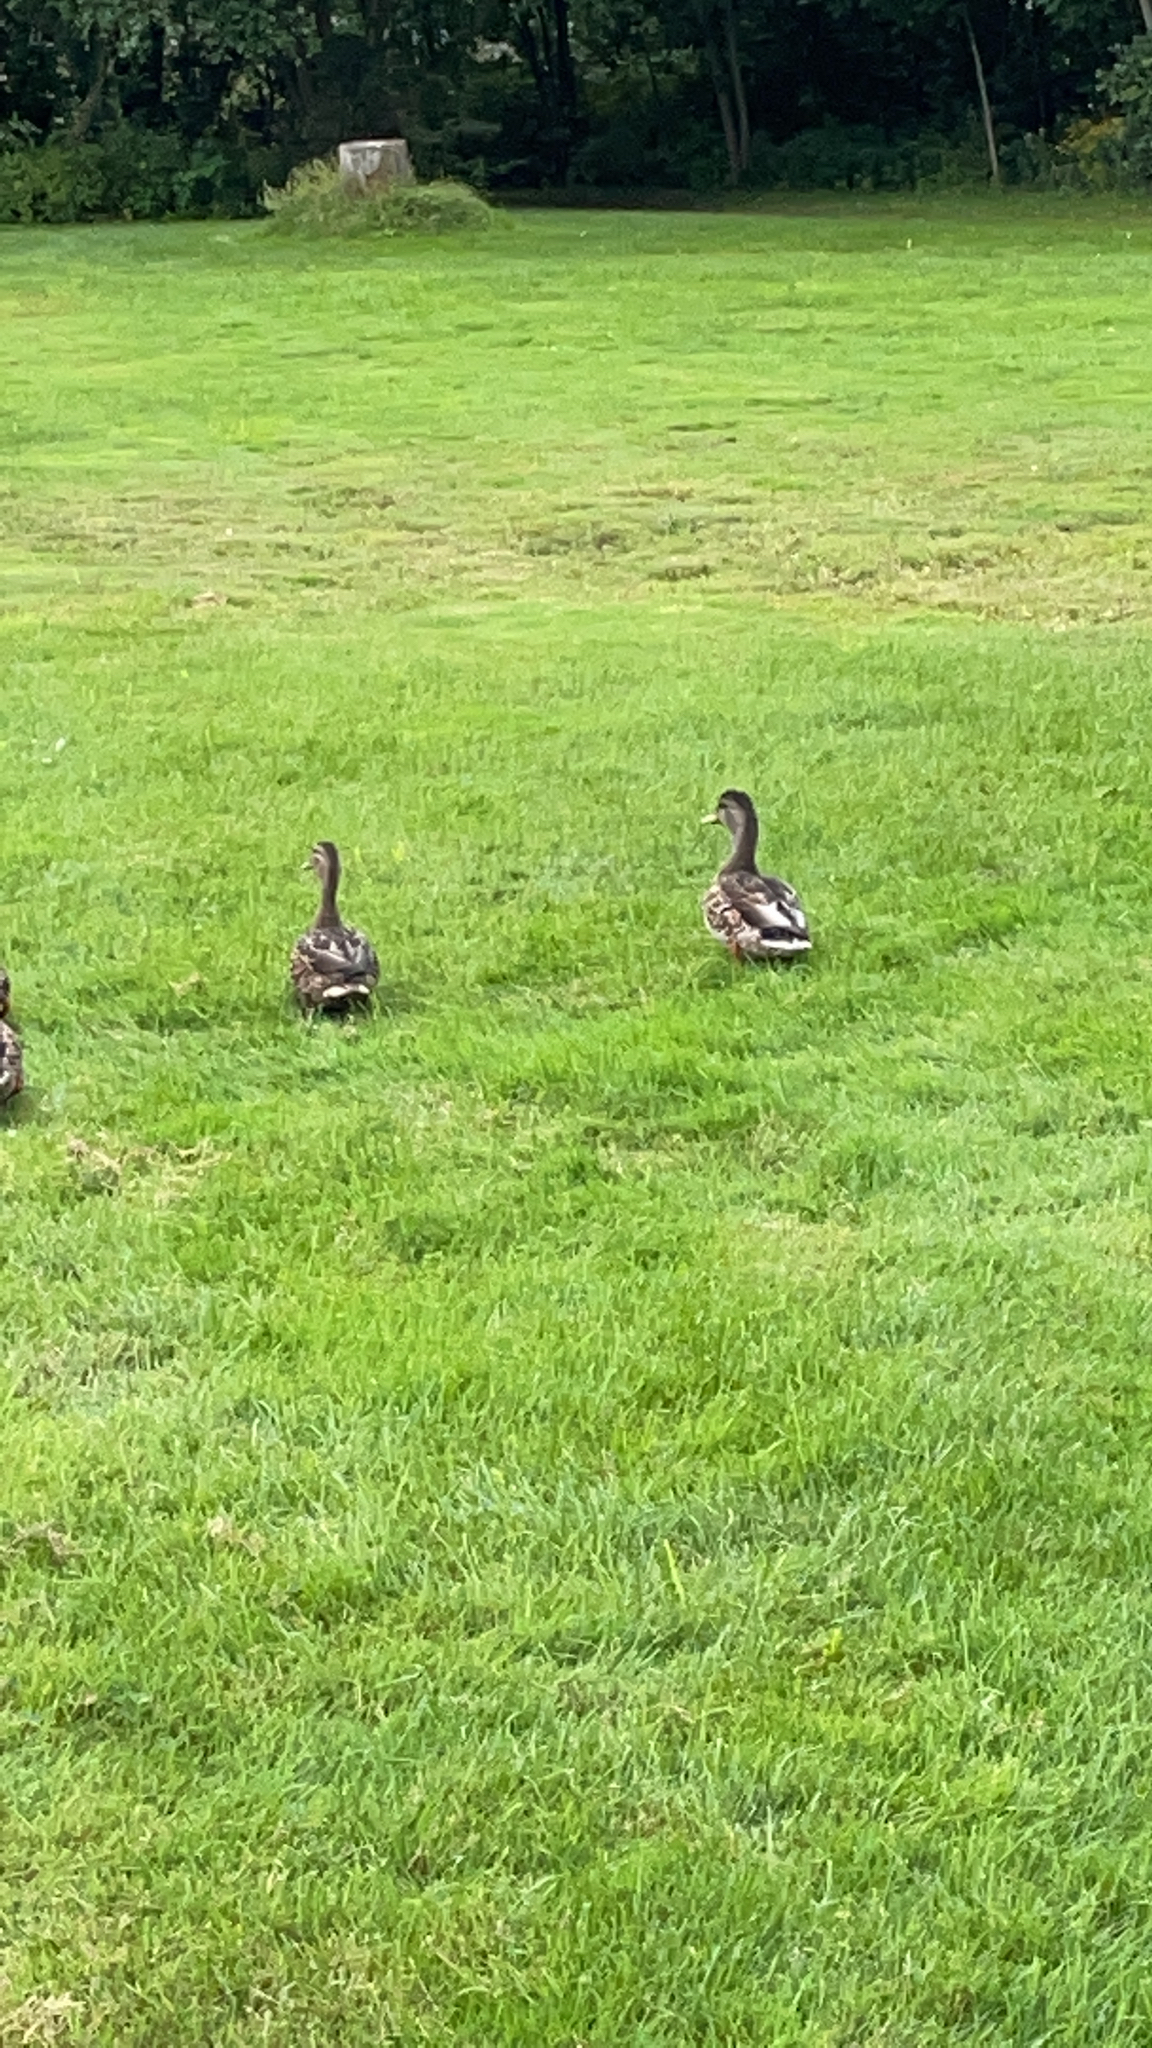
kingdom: Animalia
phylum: Chordata
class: Aves
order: Anseriformes
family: Anatidae
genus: Anas
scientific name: Anas platyrhynchos
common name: Mallard
